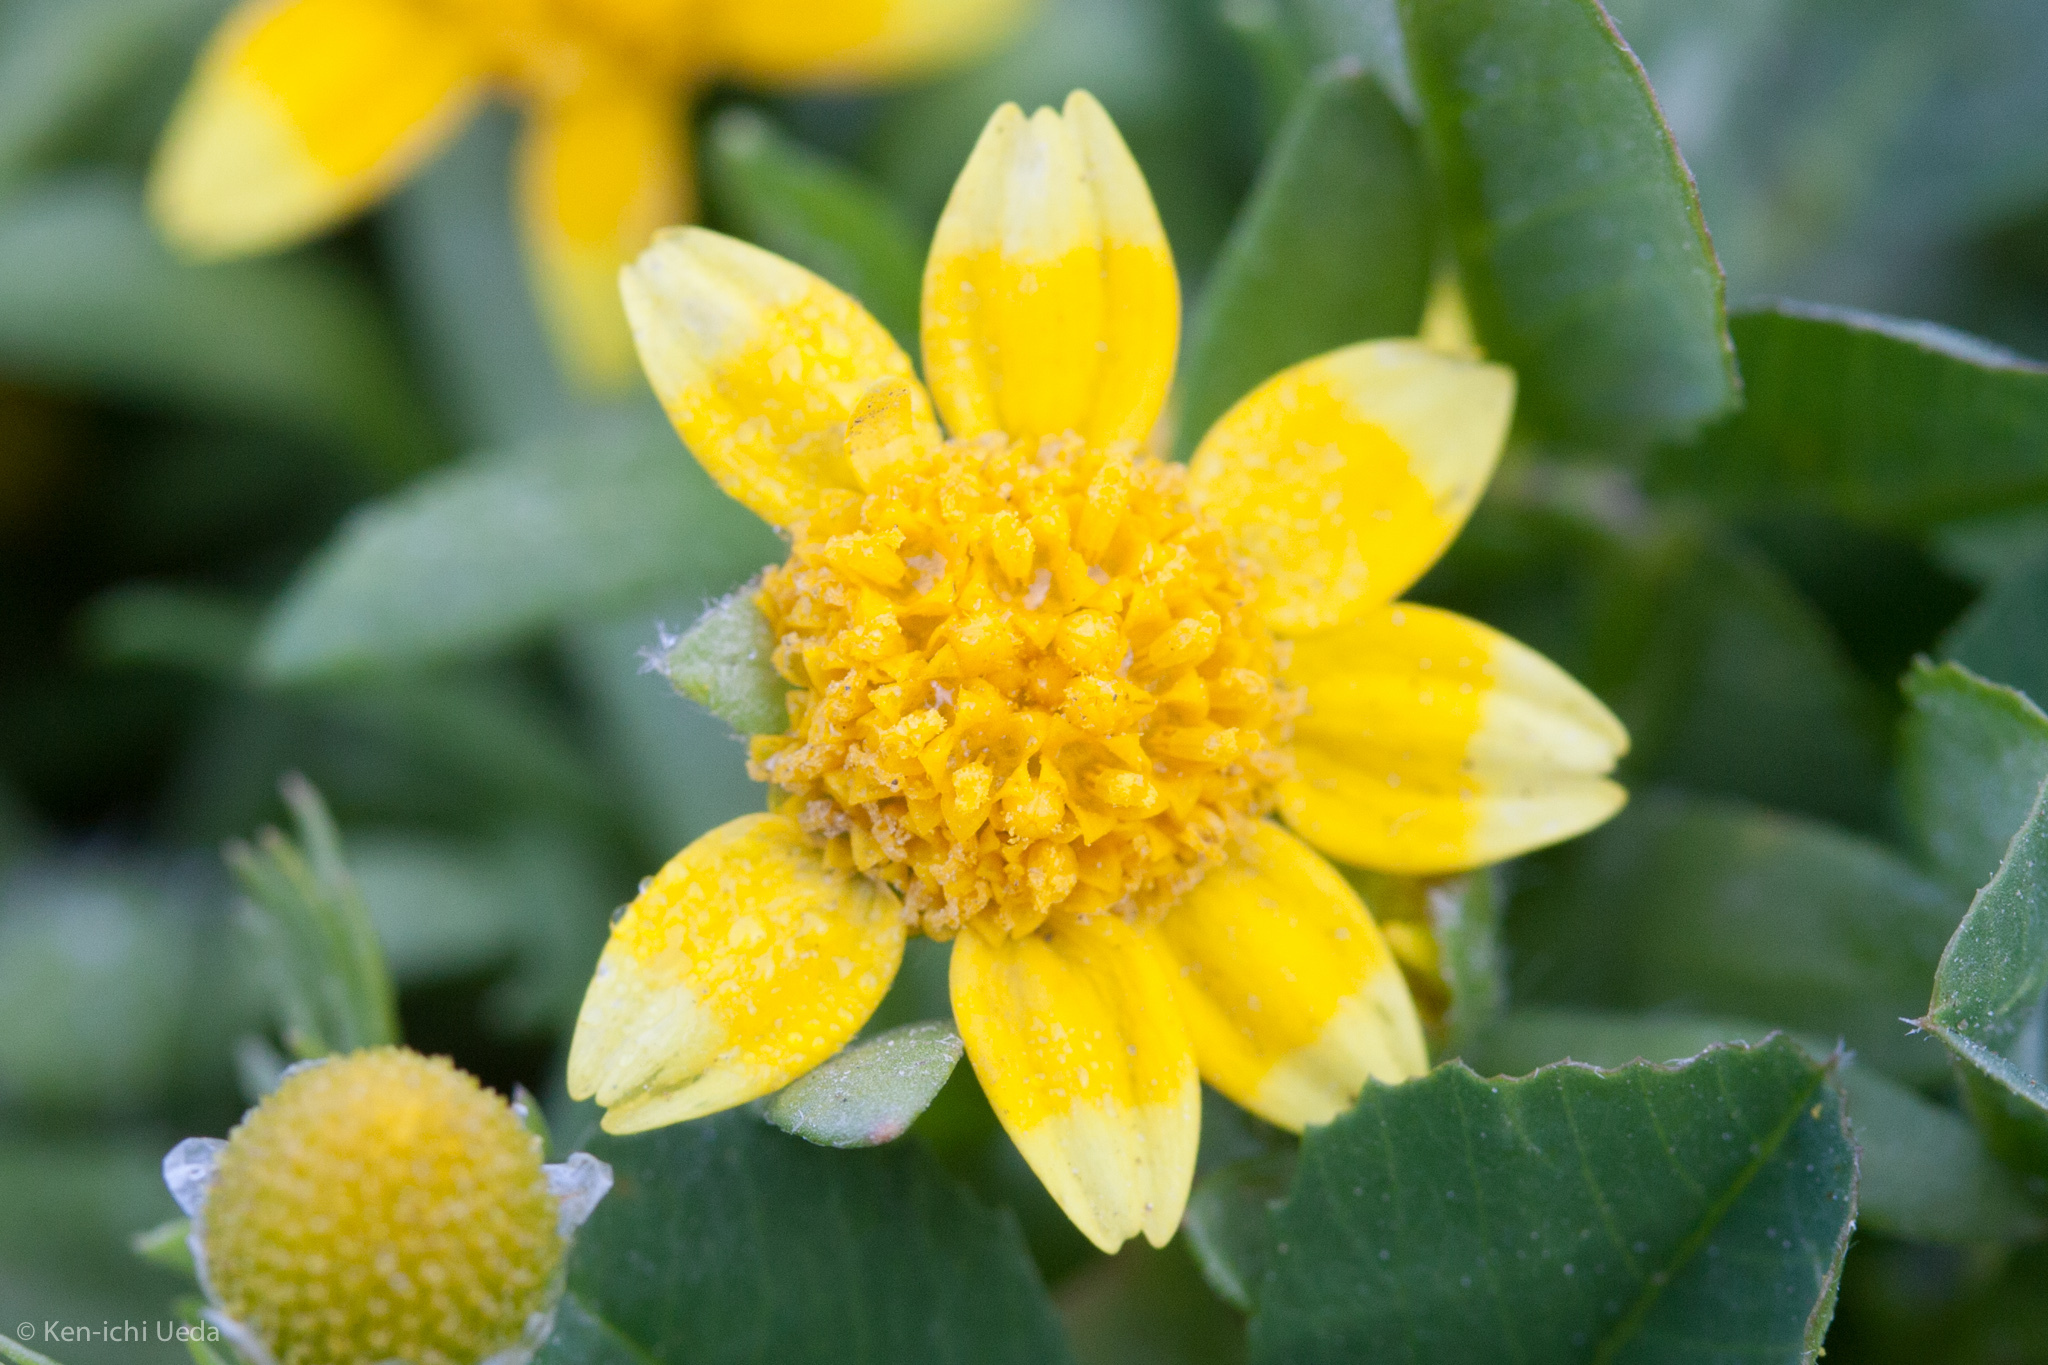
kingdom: Plantae
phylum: Tracheophyta
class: Magnoliopsida
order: Asterales
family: Asteraceae
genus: Lasthenia
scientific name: Lasthenia minor
